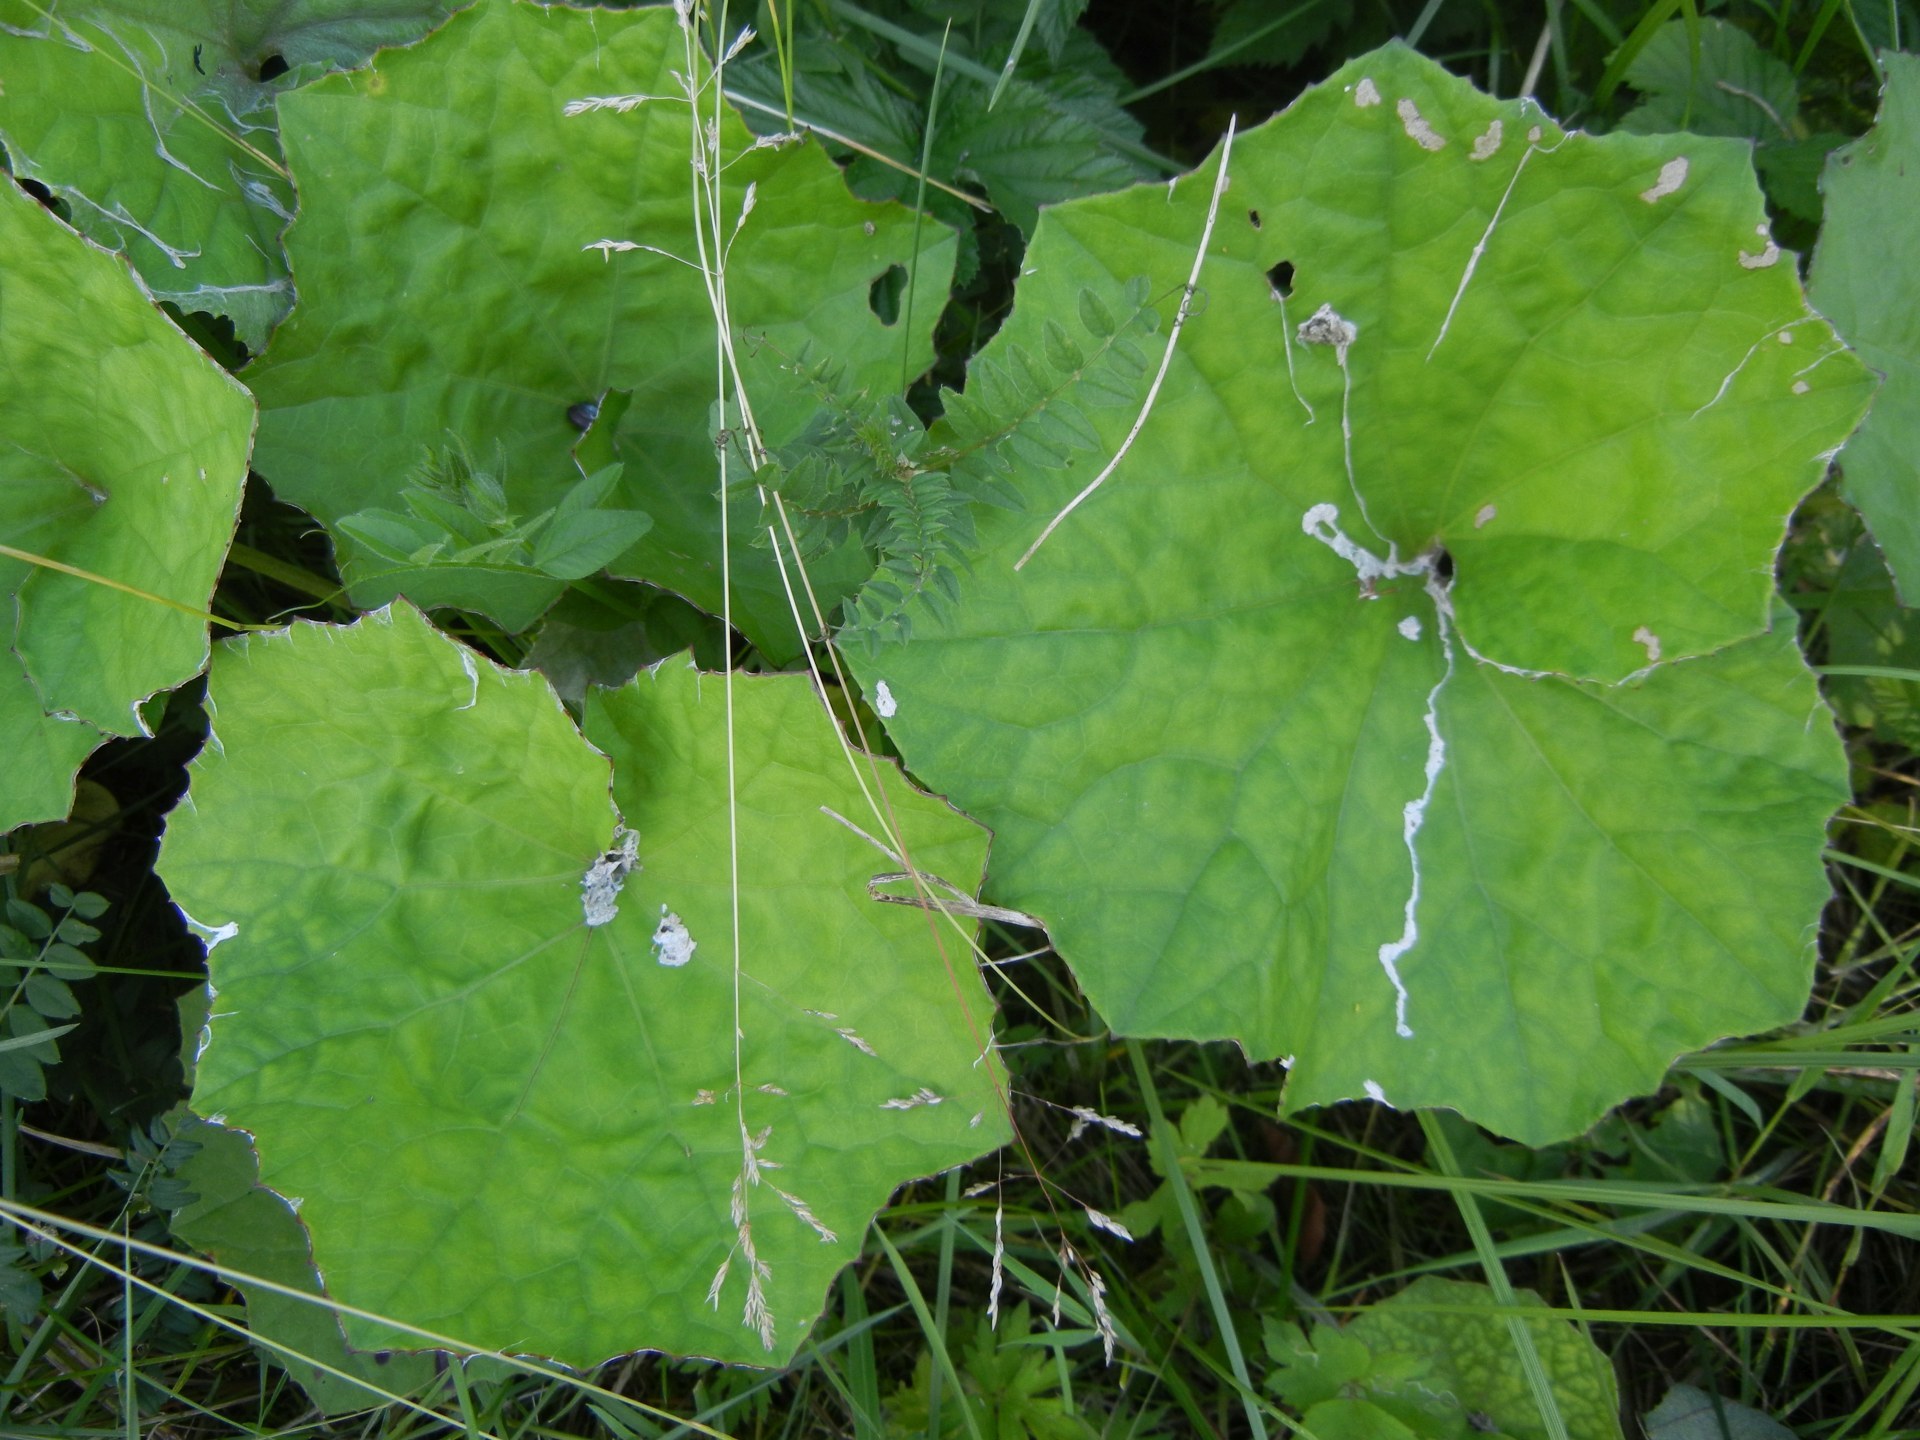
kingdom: Plantae
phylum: Tracheophyta
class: Magnoliopsida
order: Asterales
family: Asteraceae
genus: Tussilago
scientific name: Tussilago farfara
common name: Coltsfoot
